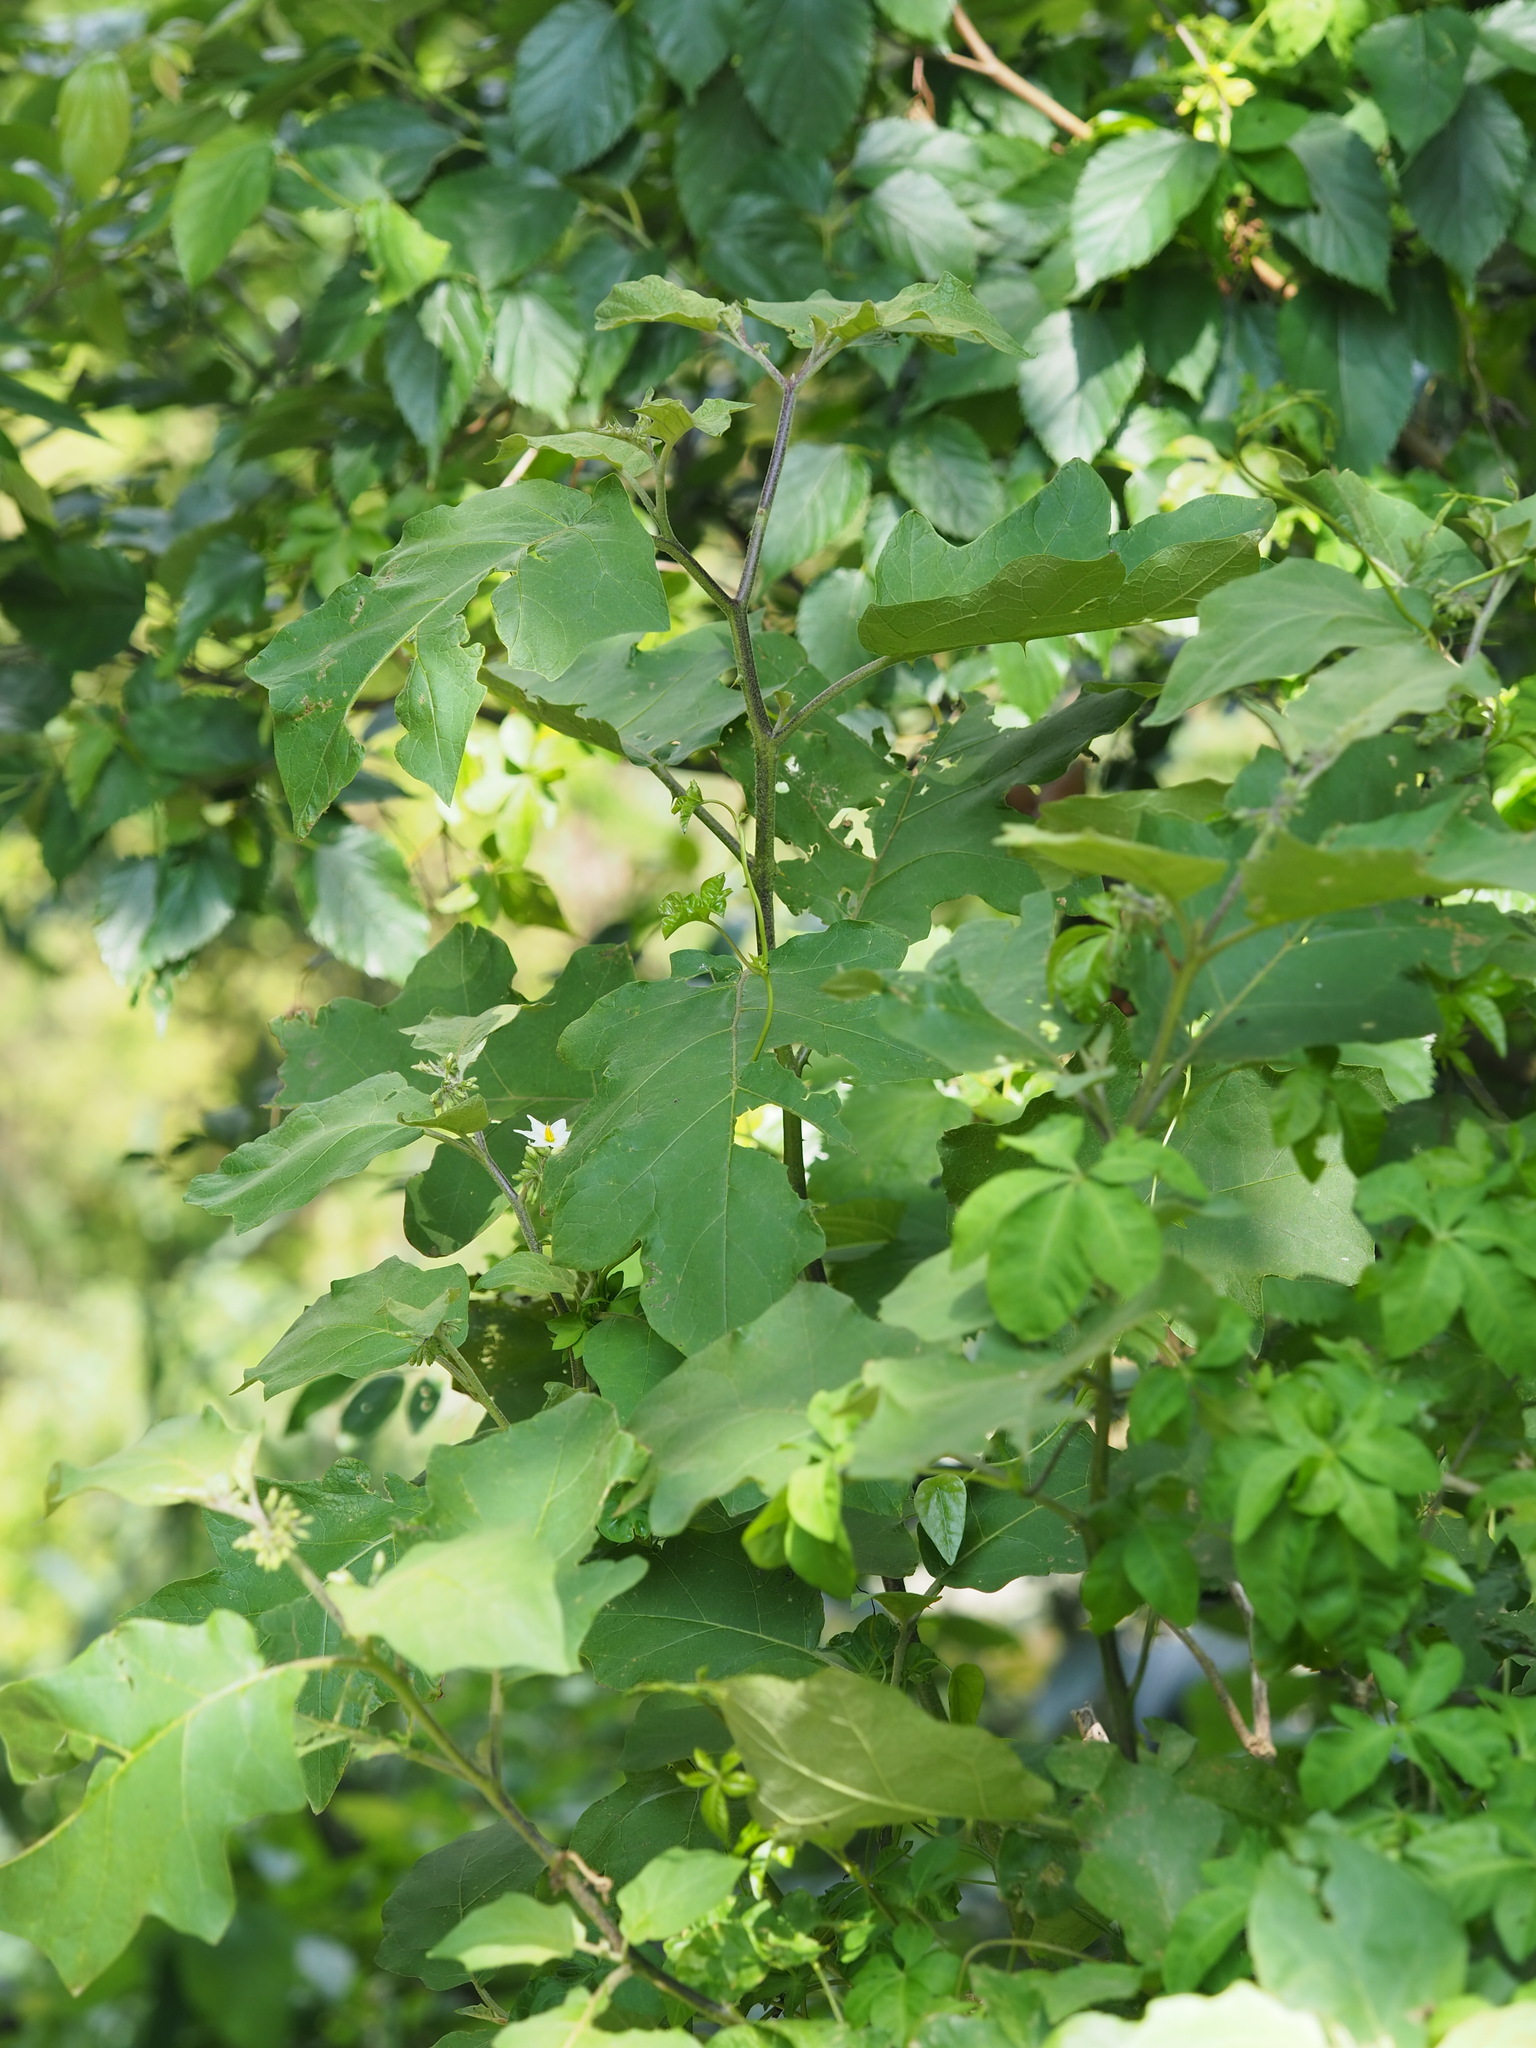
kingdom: Plantae
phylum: Tracheophyta
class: Magnoliopsida
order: Solanales
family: Solanaceae
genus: Solanum
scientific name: Solanum torvum
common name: Turkey berry
